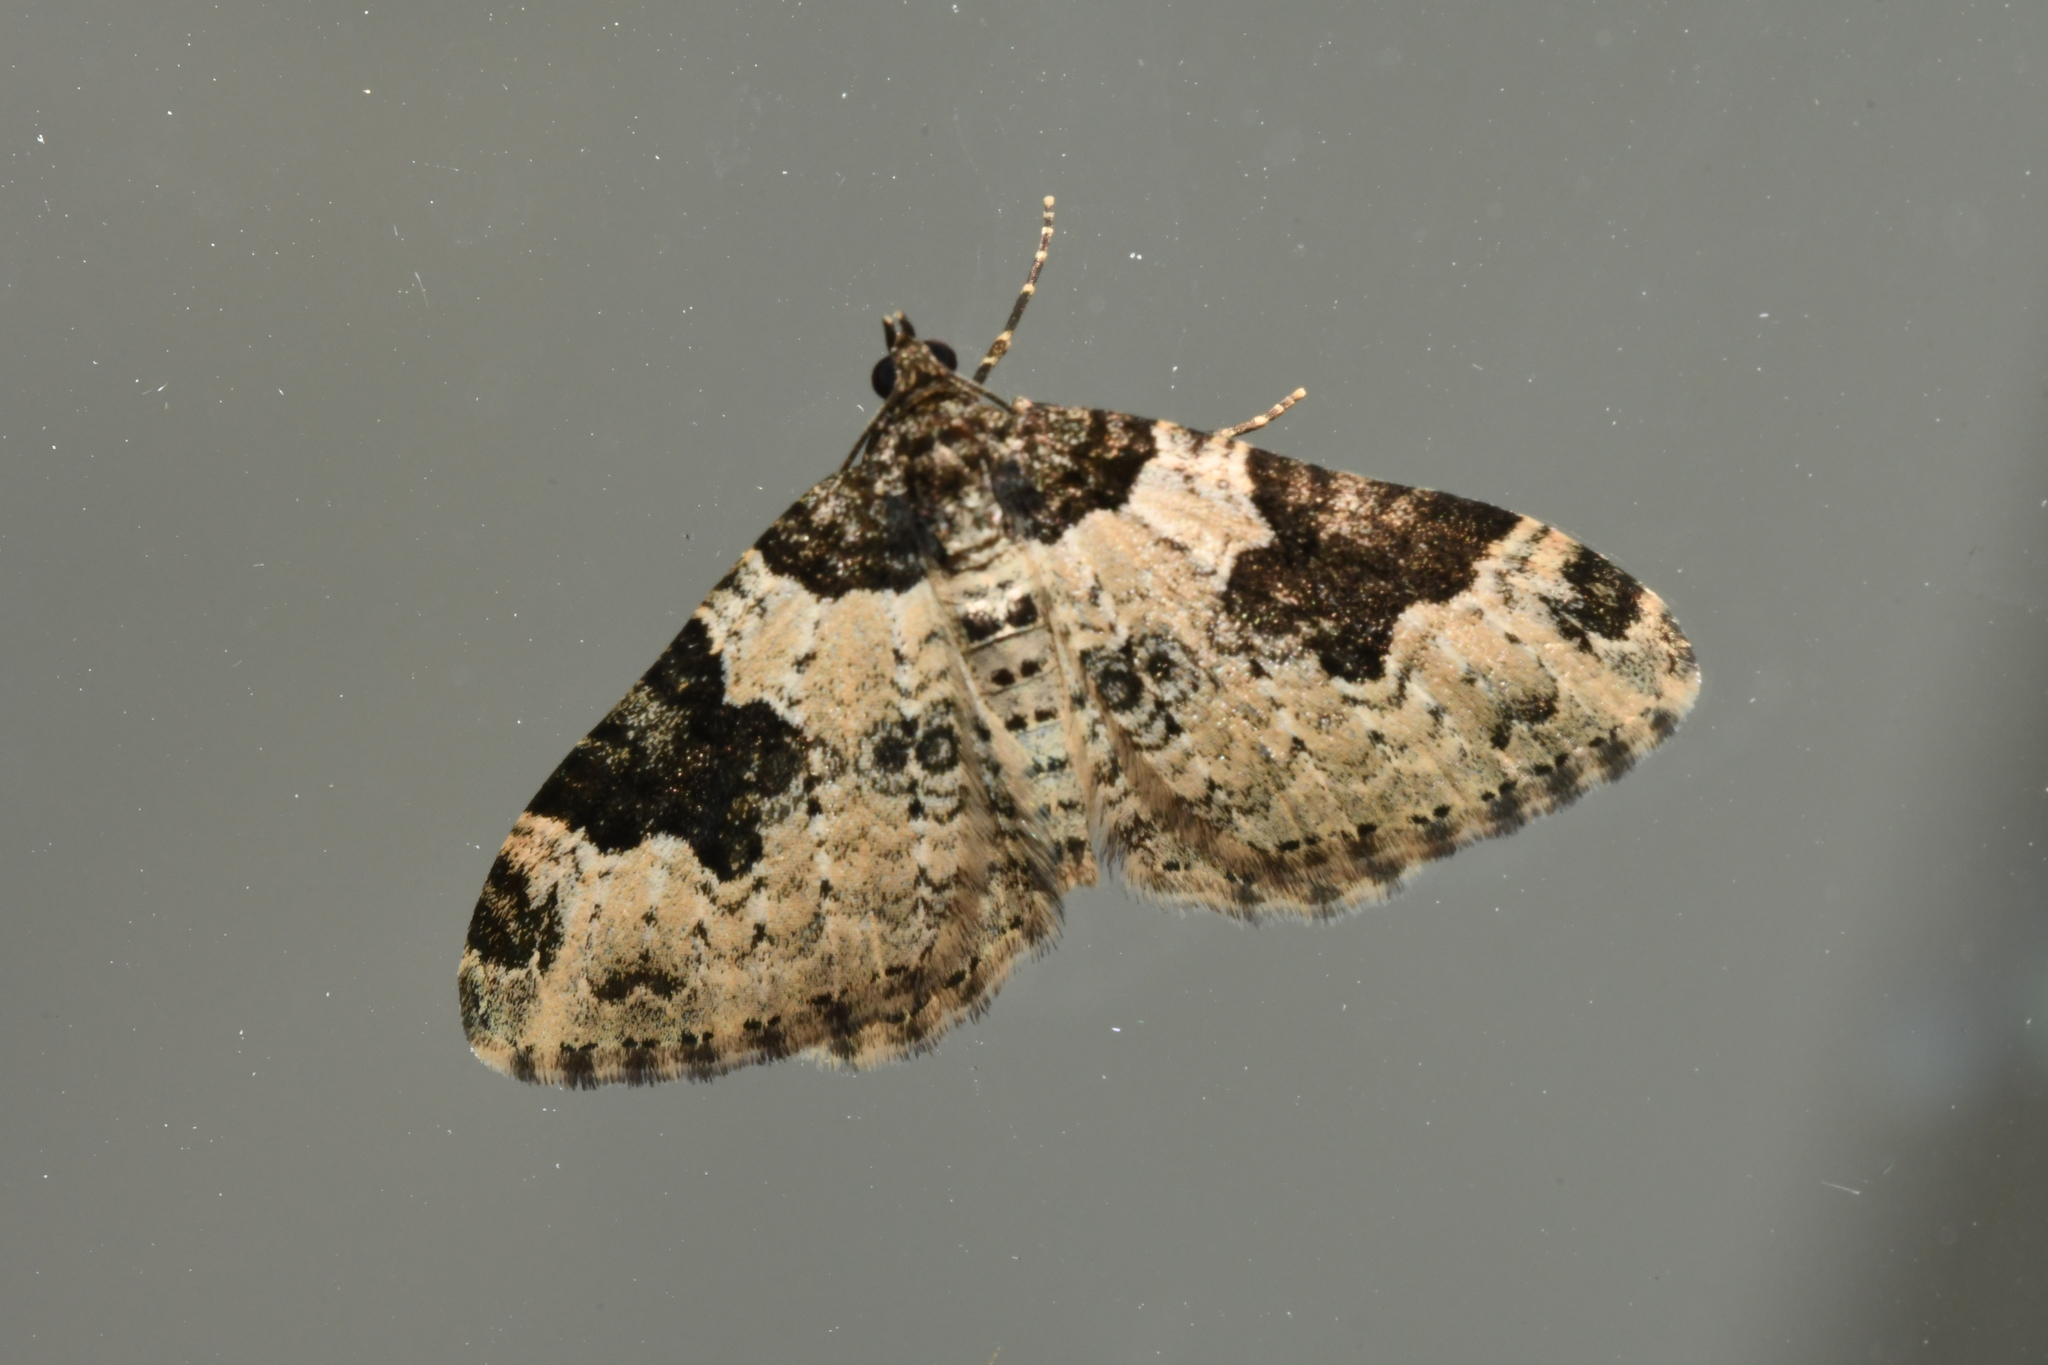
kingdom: Animalia
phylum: Arthropoda
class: Insecta
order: Lepidoptera
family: Geometridae
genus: Xanthorhoe
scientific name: Xanthorhoe fluctuata
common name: Garden carpet
